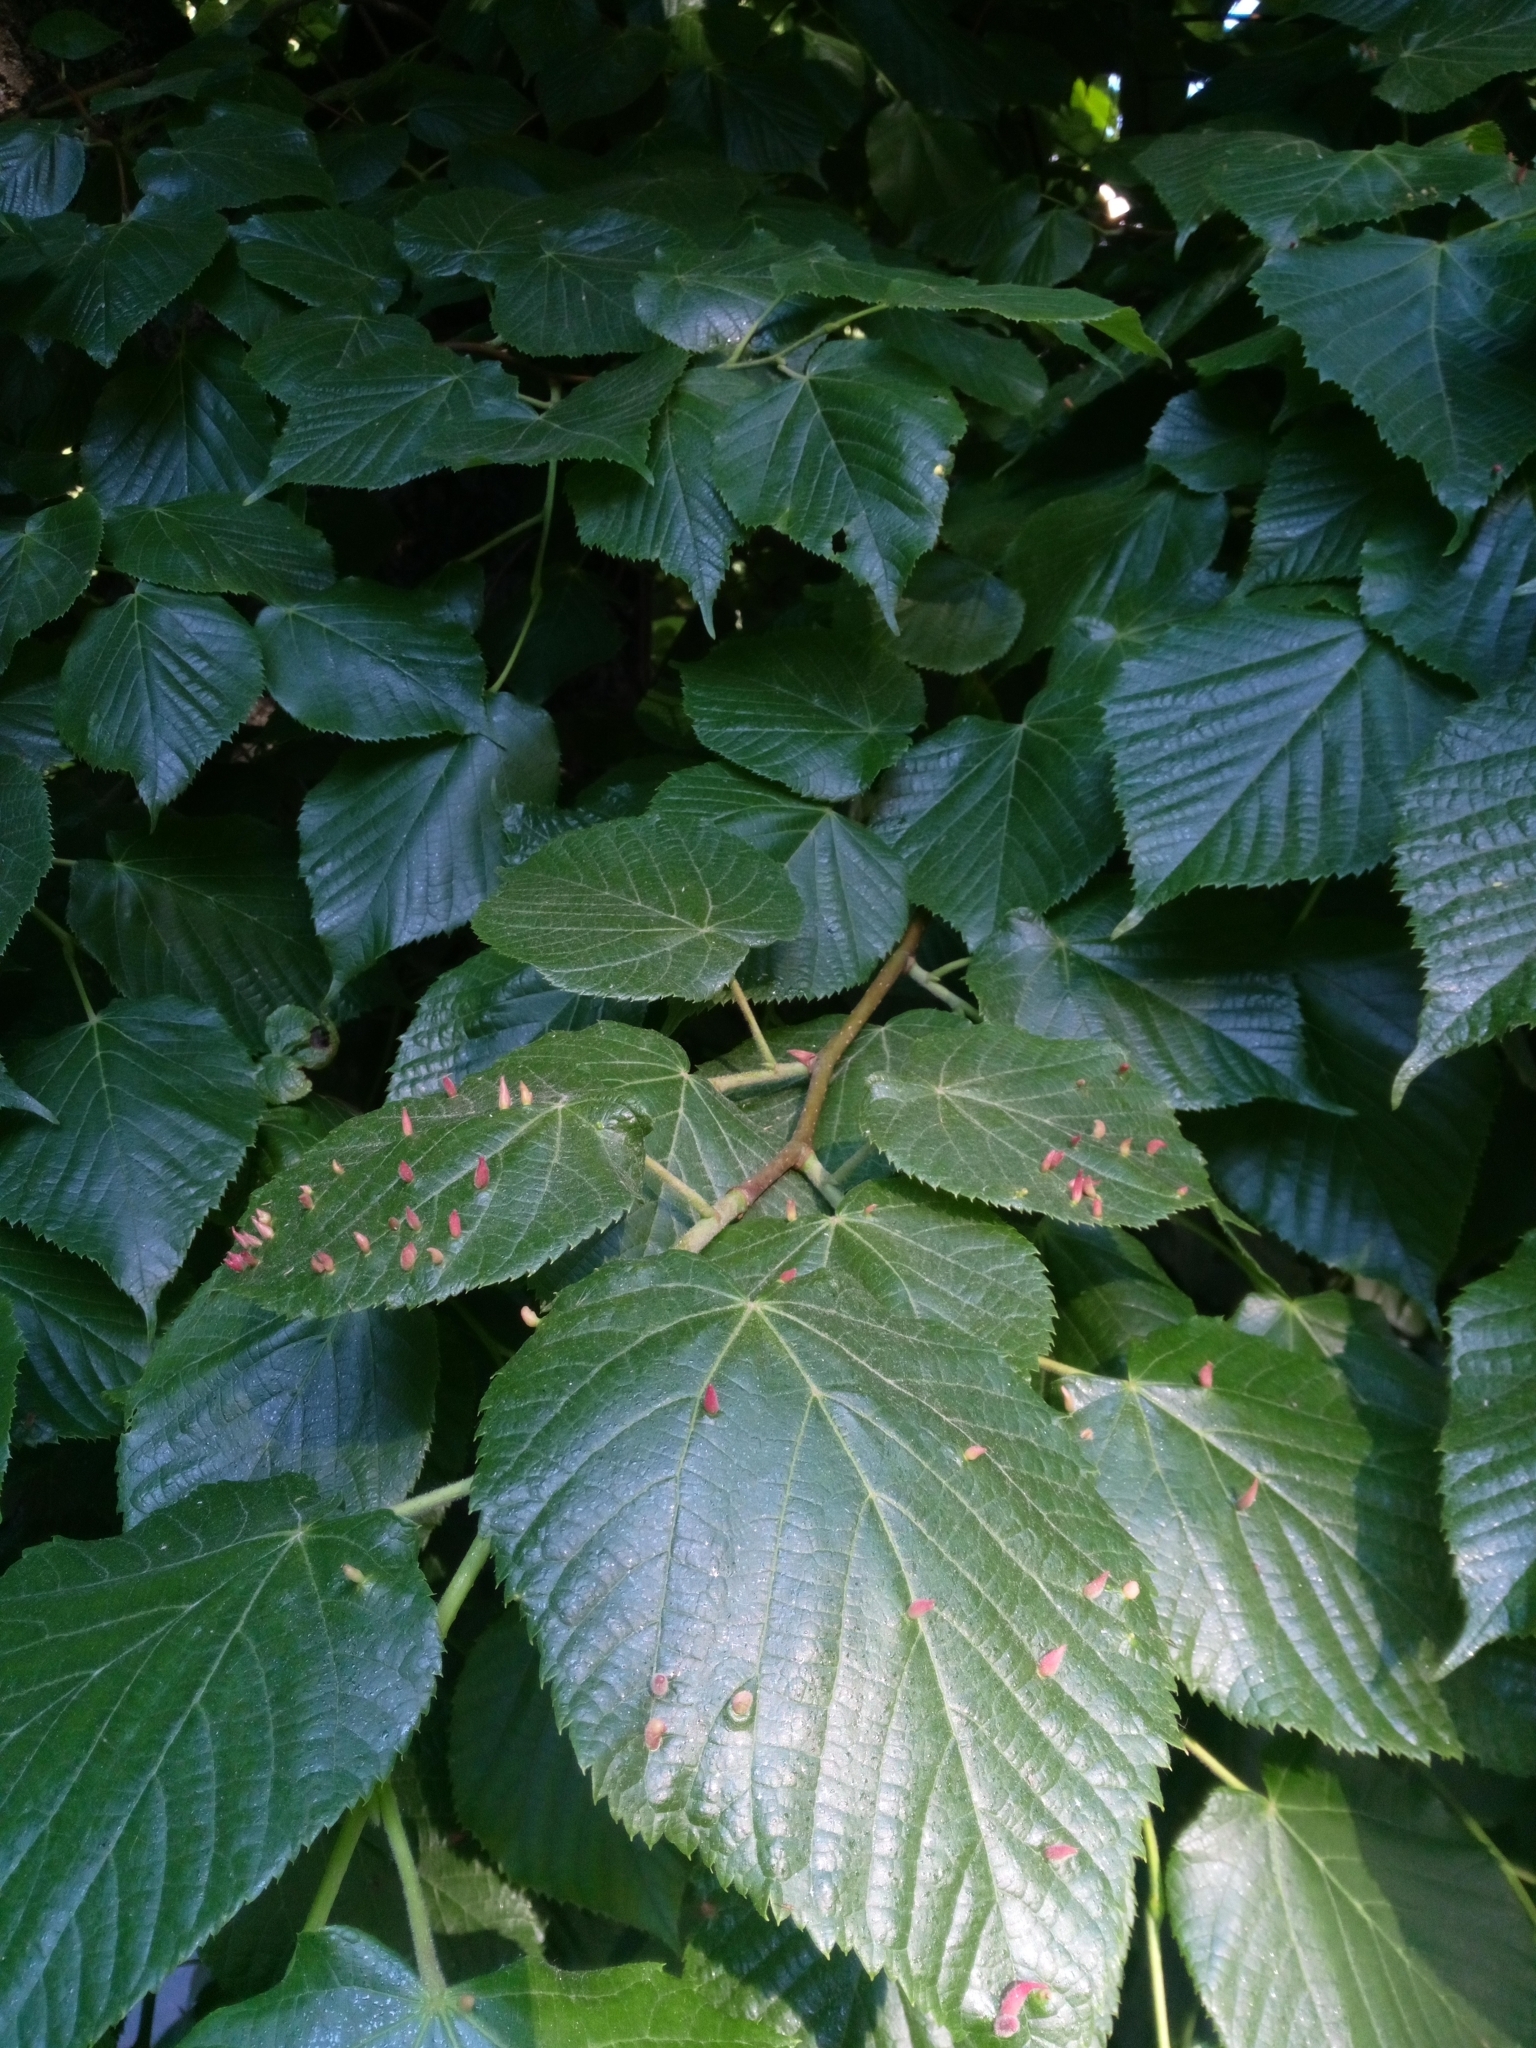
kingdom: Animalia
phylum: Arthropoda
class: Arachnida
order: Trombidiformes
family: Eriophyidae
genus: Eriophyes
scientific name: Eriophyes tiliae
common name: Red nail gall mite
